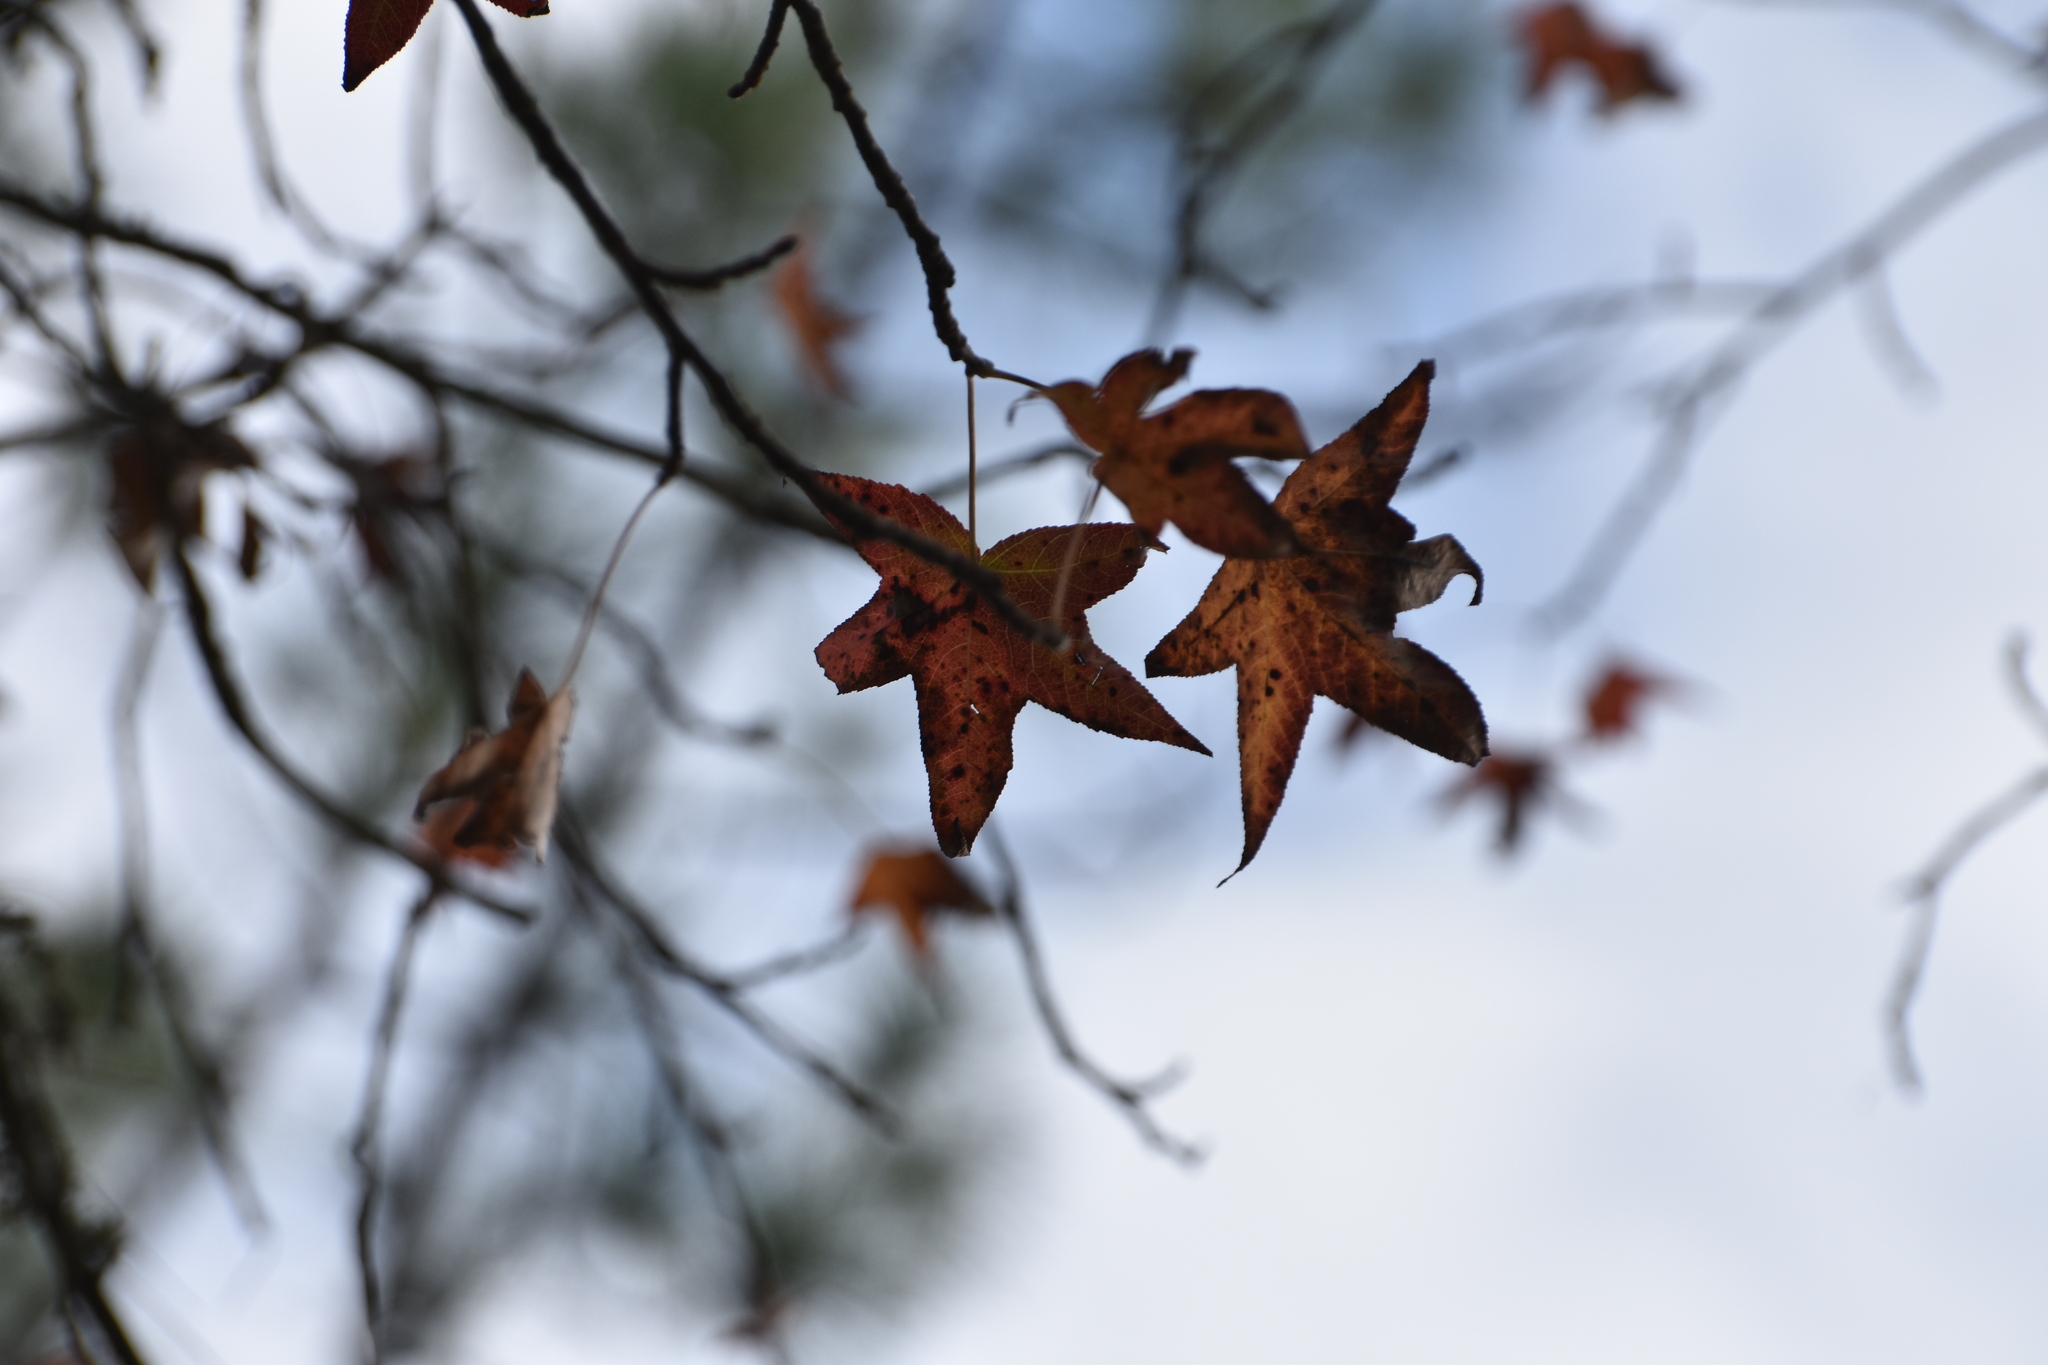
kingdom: Plantae
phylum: Tracheophyta
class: Magnoliopsida
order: Saxifragales
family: Altingiaceae
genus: Liquidambar
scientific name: Liquidambar styraciflua
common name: Sweet gum
